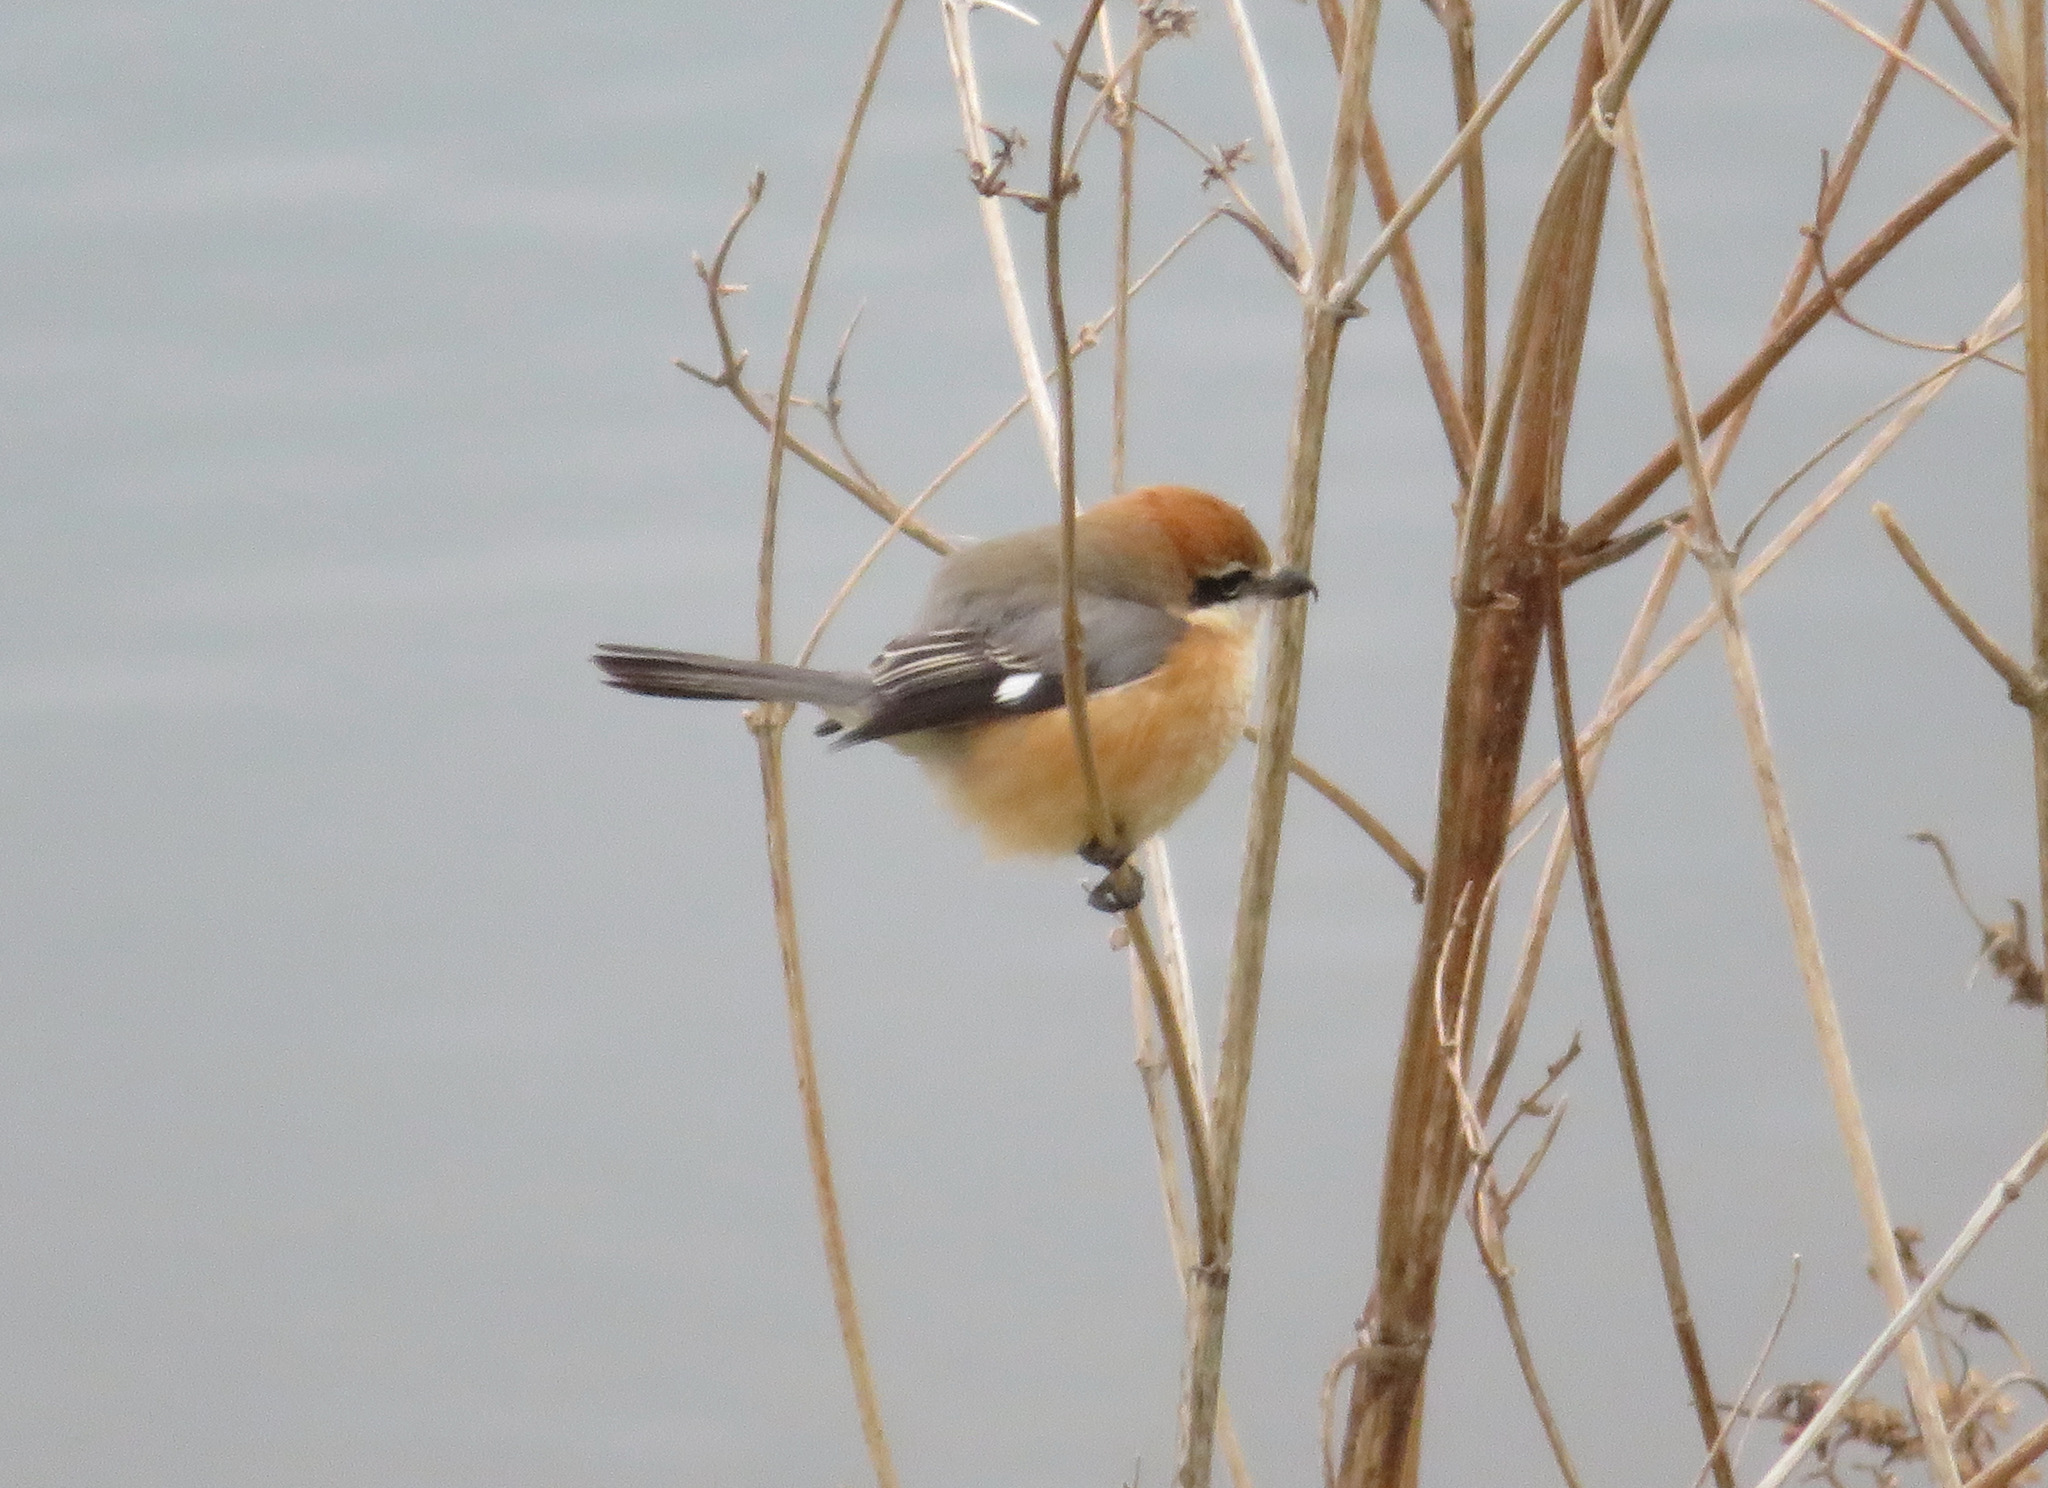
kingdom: Animalia
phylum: Chordata
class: Aves
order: Passeriformes
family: Laniidae
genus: Lanius
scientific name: Lanius bucephalus
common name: Bull-headed shrike
